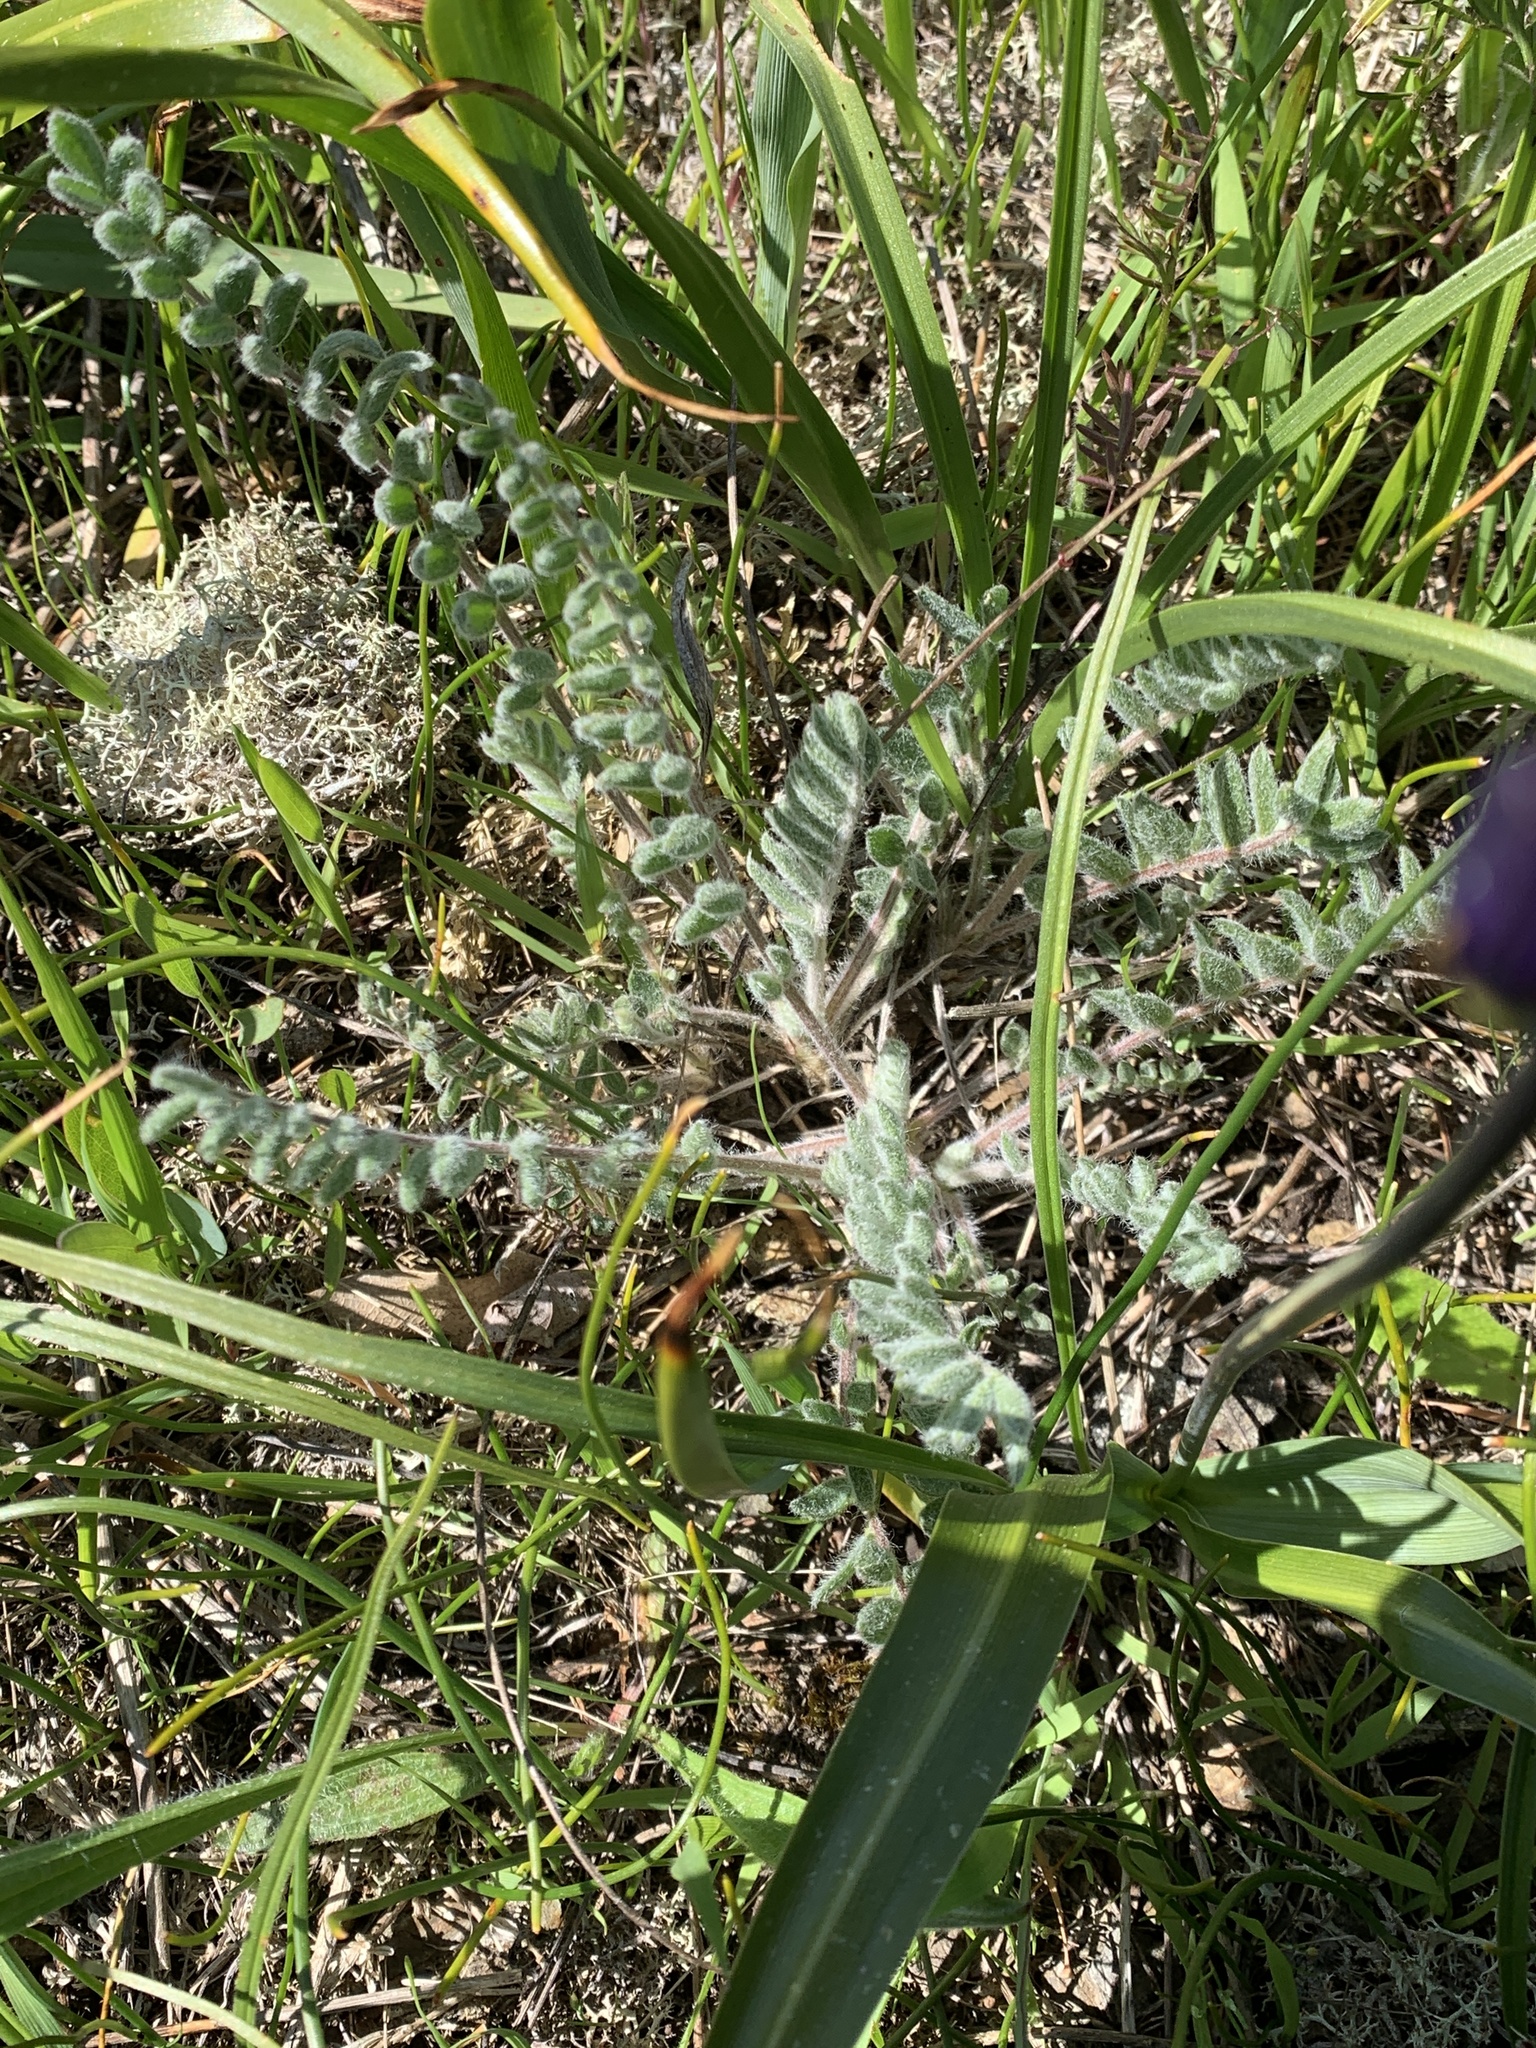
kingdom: Plantae
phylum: Tracheophyta
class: Magnoliopsida
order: Fabales
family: Fabaceae
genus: Oxytropis
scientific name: Oxytropis campestris
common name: Field locoweed
